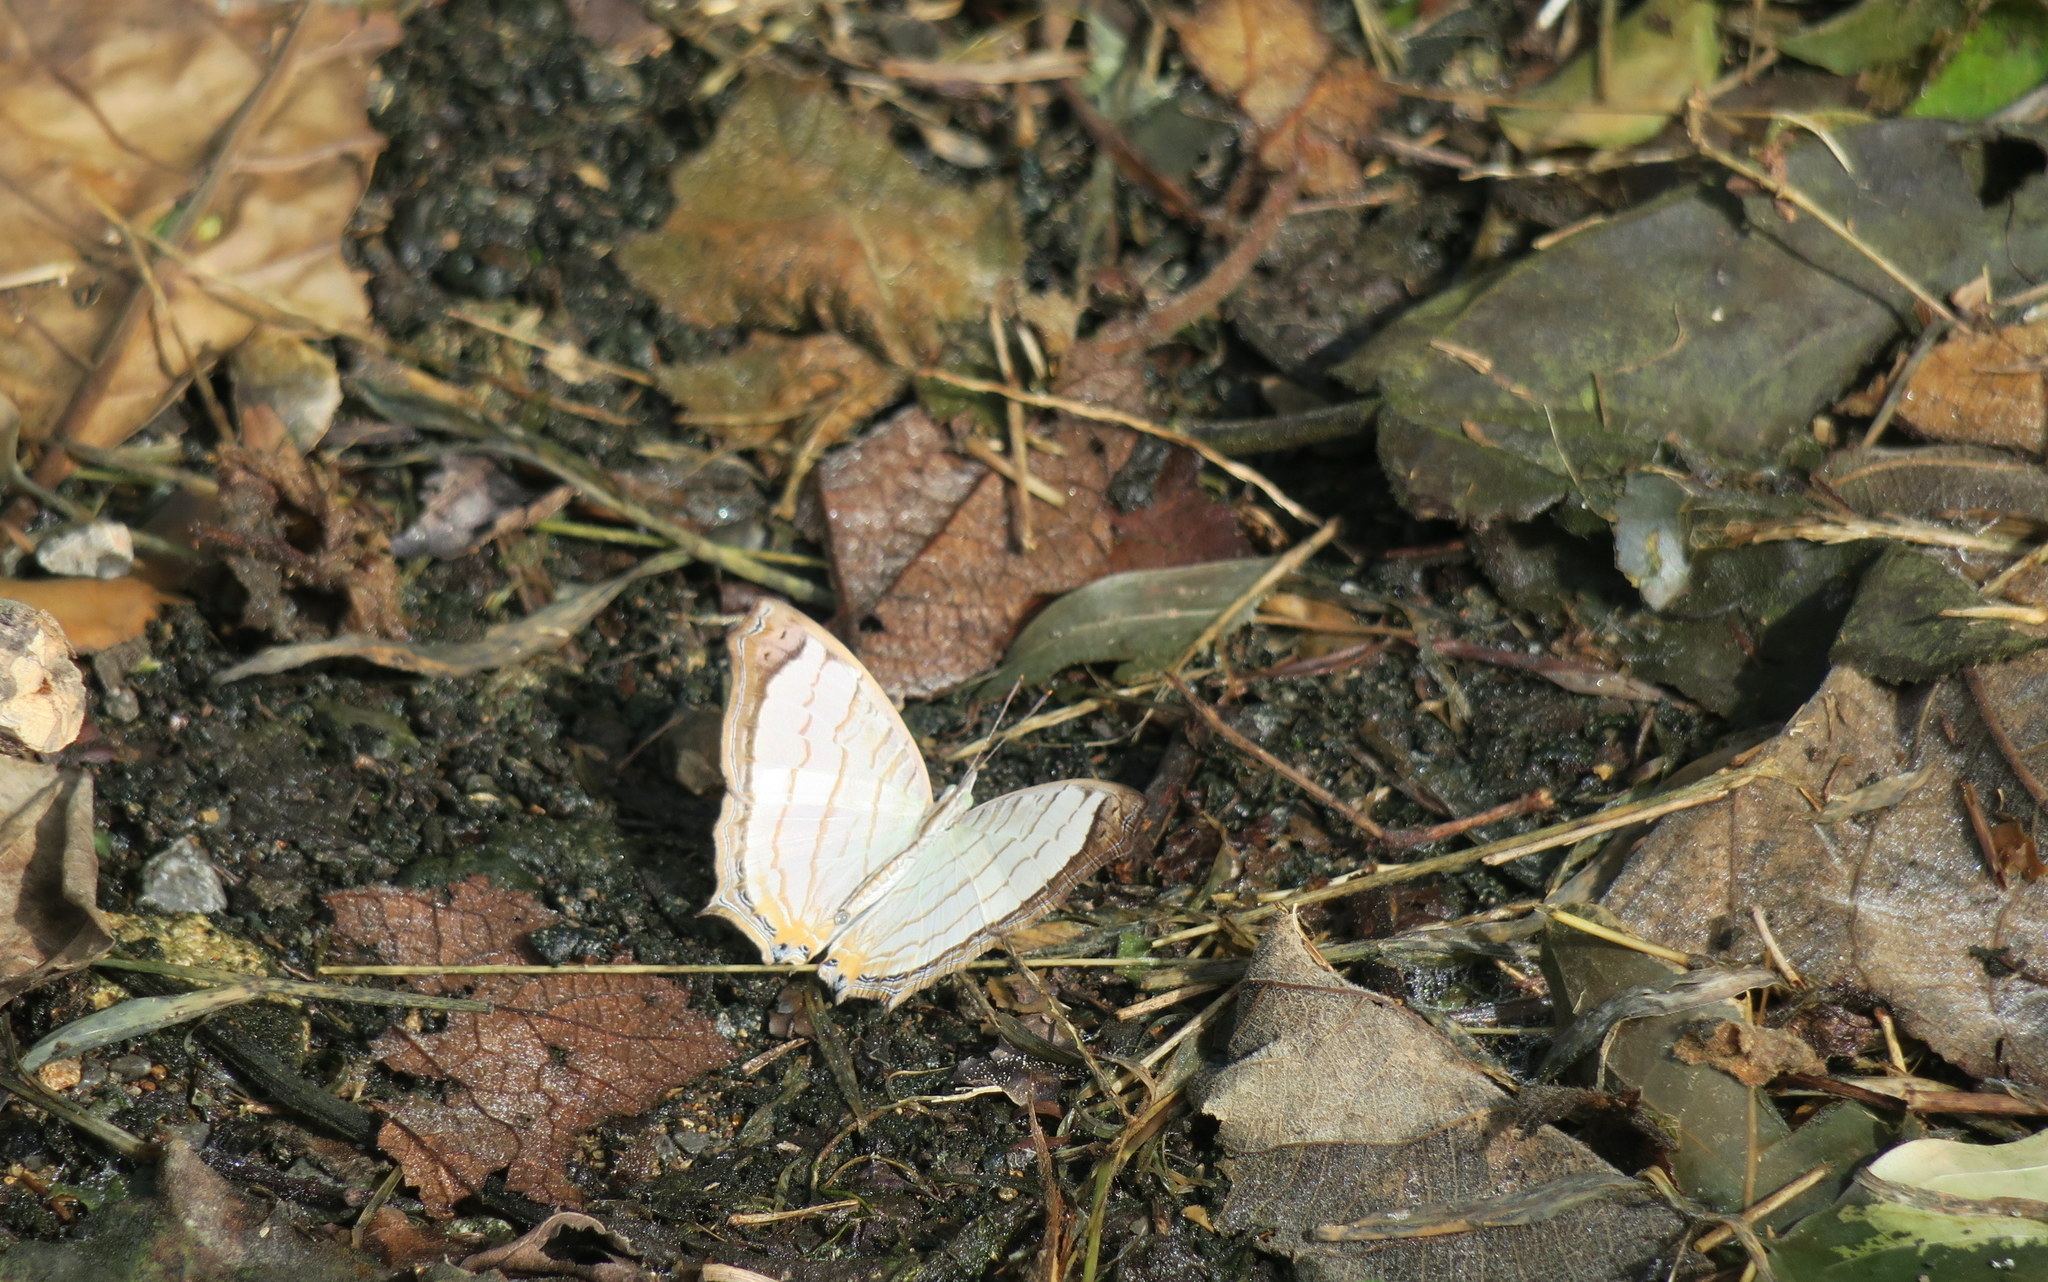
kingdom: Animalia
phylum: Arthropoda
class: Insecta
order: Lepidoptera
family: Nymphalidae
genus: Cyrestis
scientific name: Cyrestis themire
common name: Little mapwing
